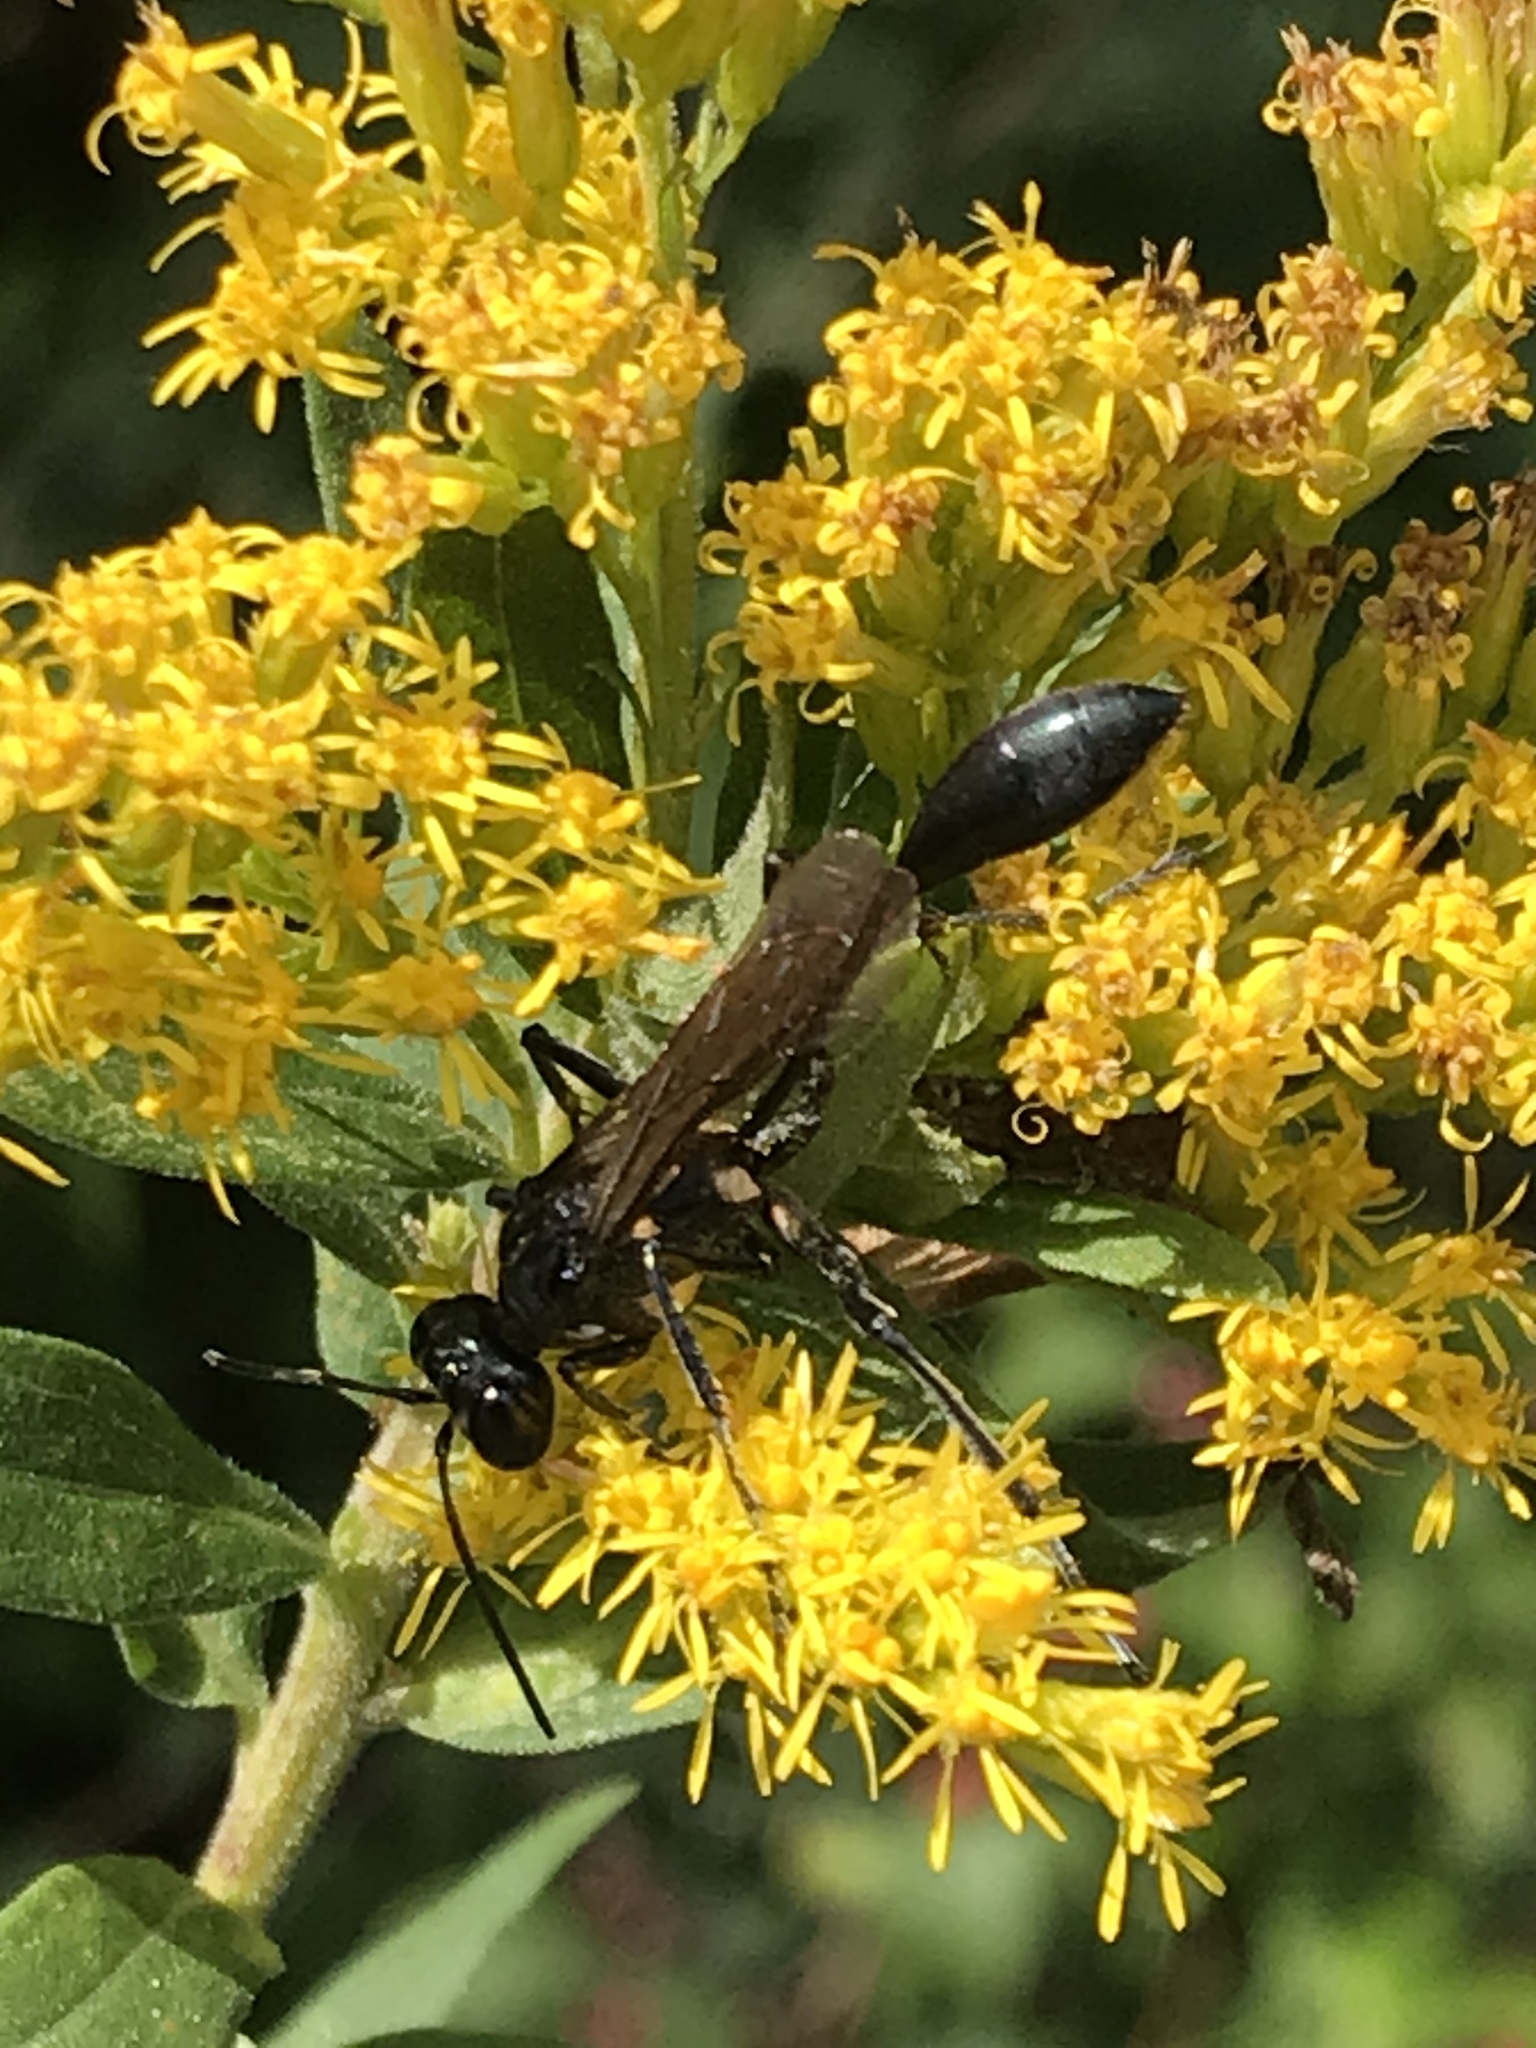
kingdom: Animalia
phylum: Arthropoda
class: Insecta
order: Hymenoptera
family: Sphecidae
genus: Eremnophila
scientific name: Eremnophila aureonotata
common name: Gold-marked thread-waisted wasp
